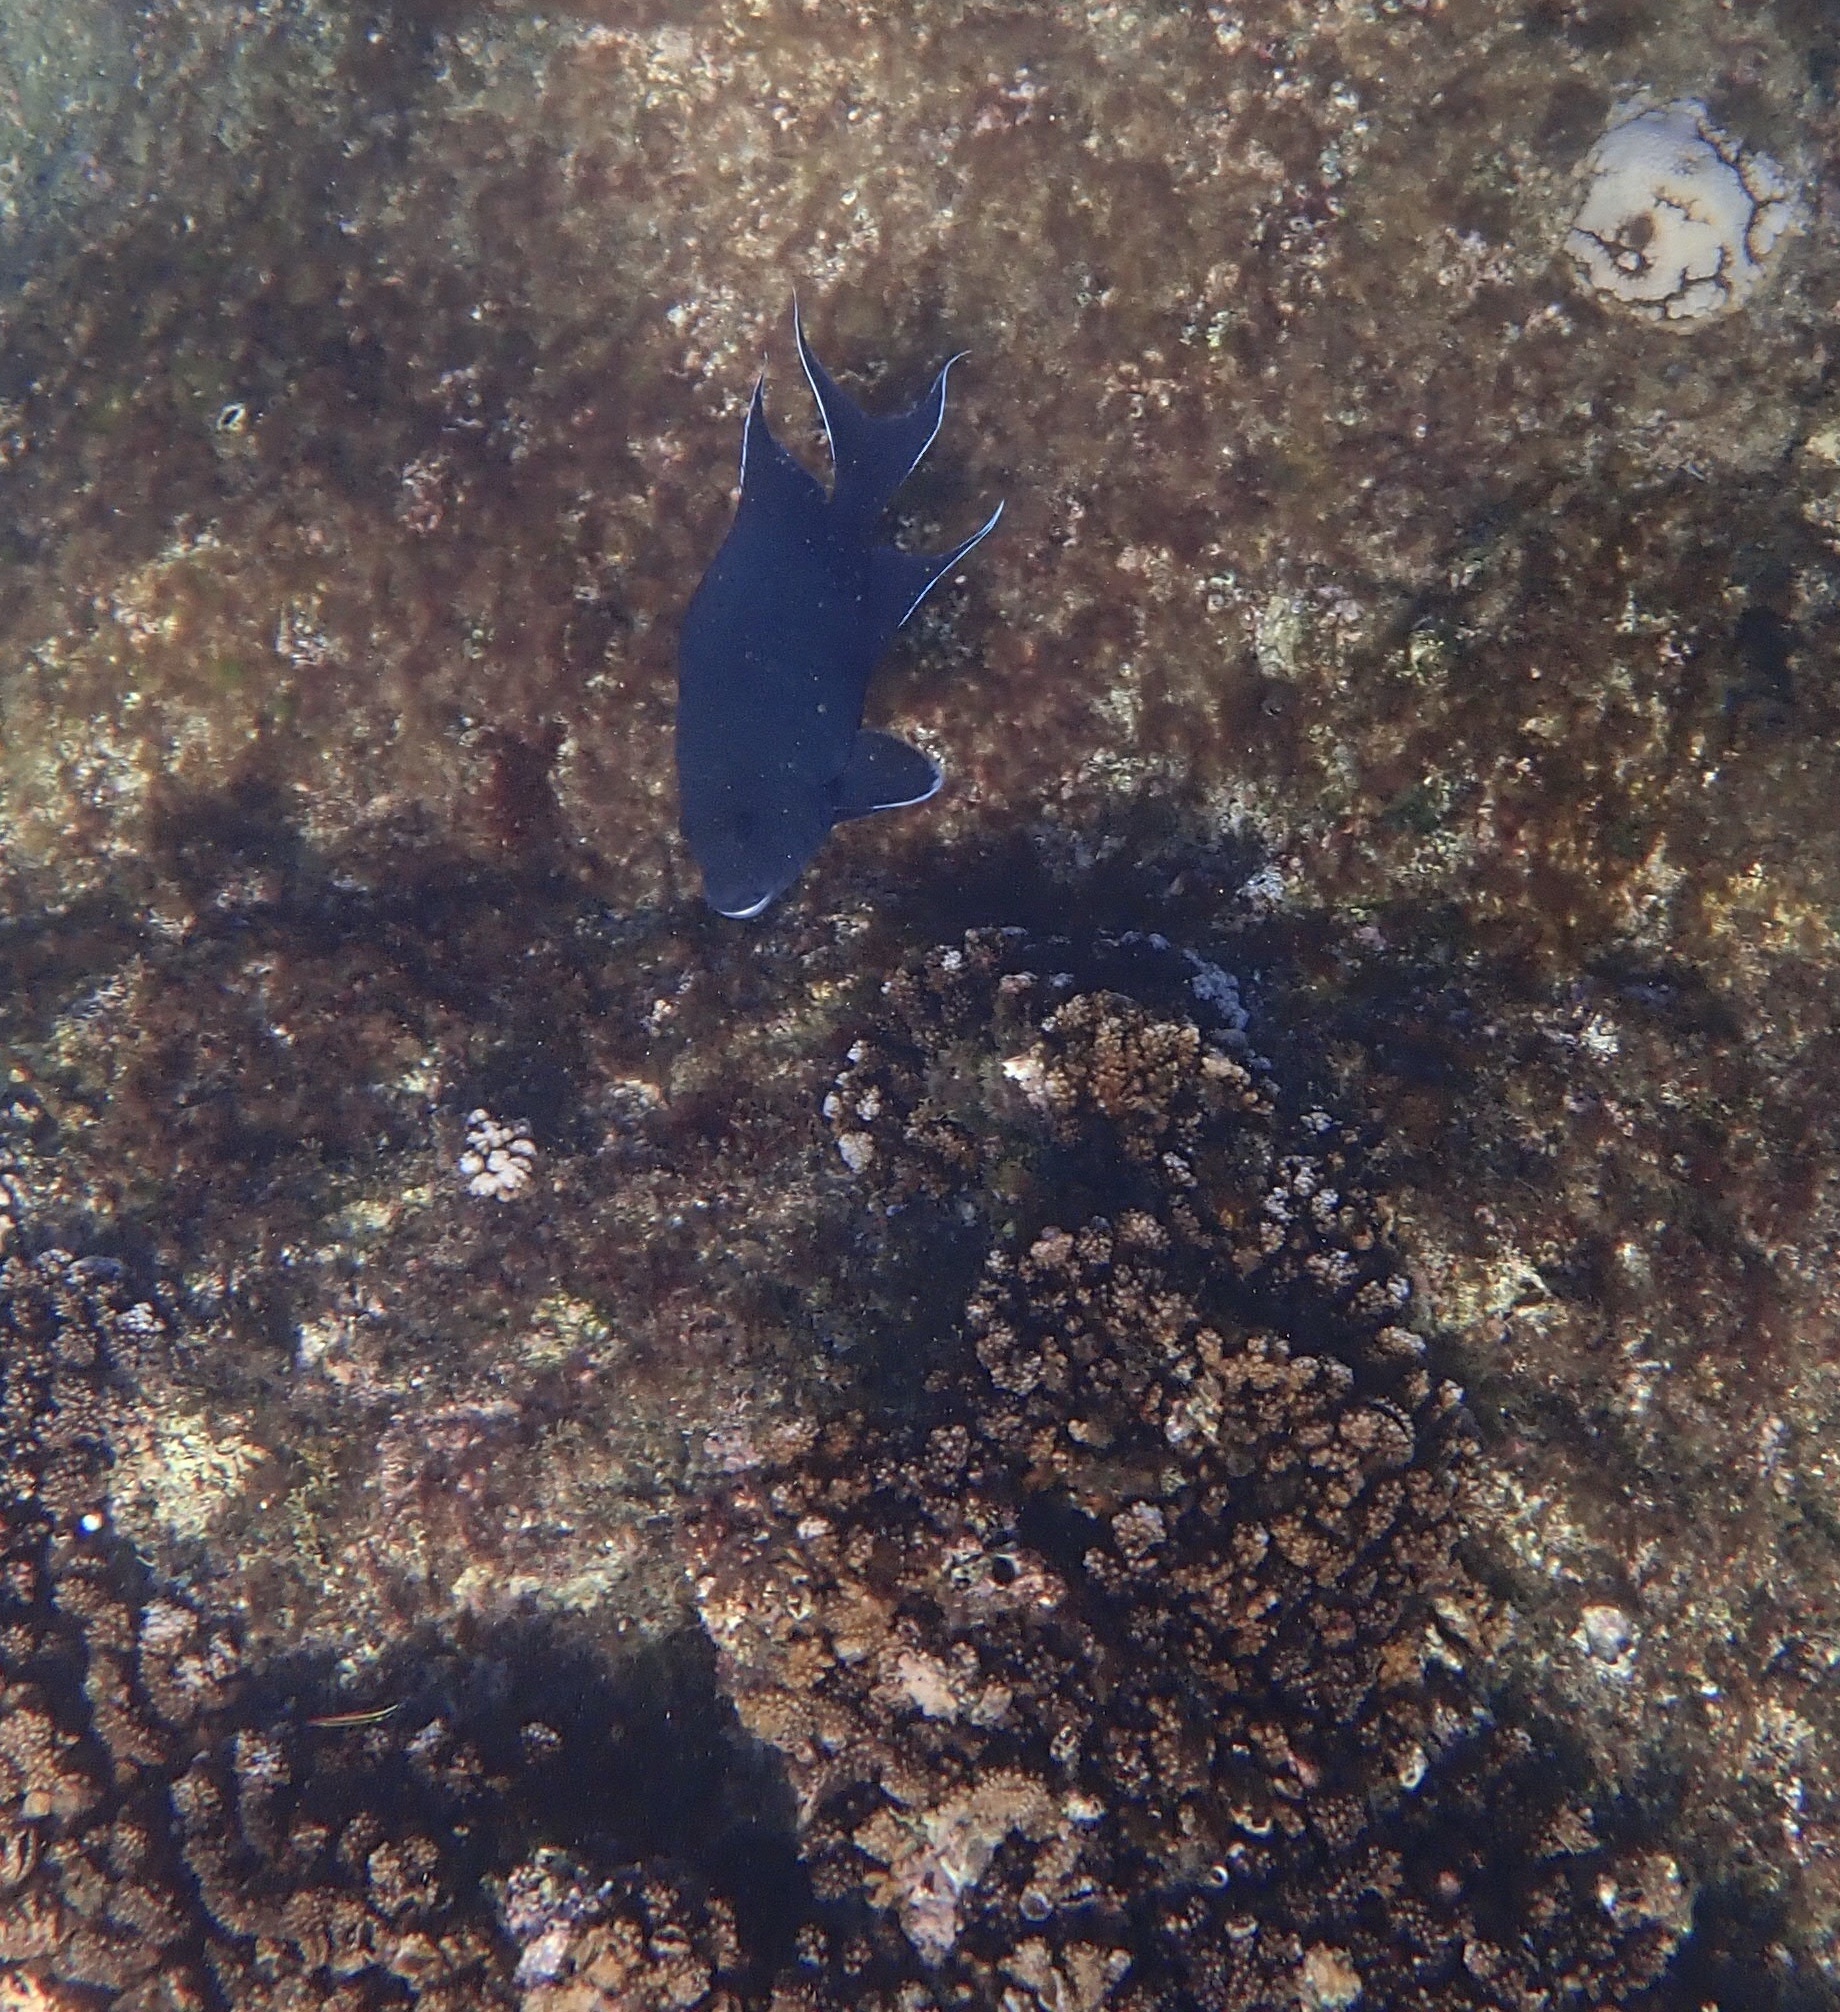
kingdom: Animalia
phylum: Chordata
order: Perciformes
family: Pomacentridae
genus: Microspathodon
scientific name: Microspathodon dorsalis
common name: Giant damselfish
